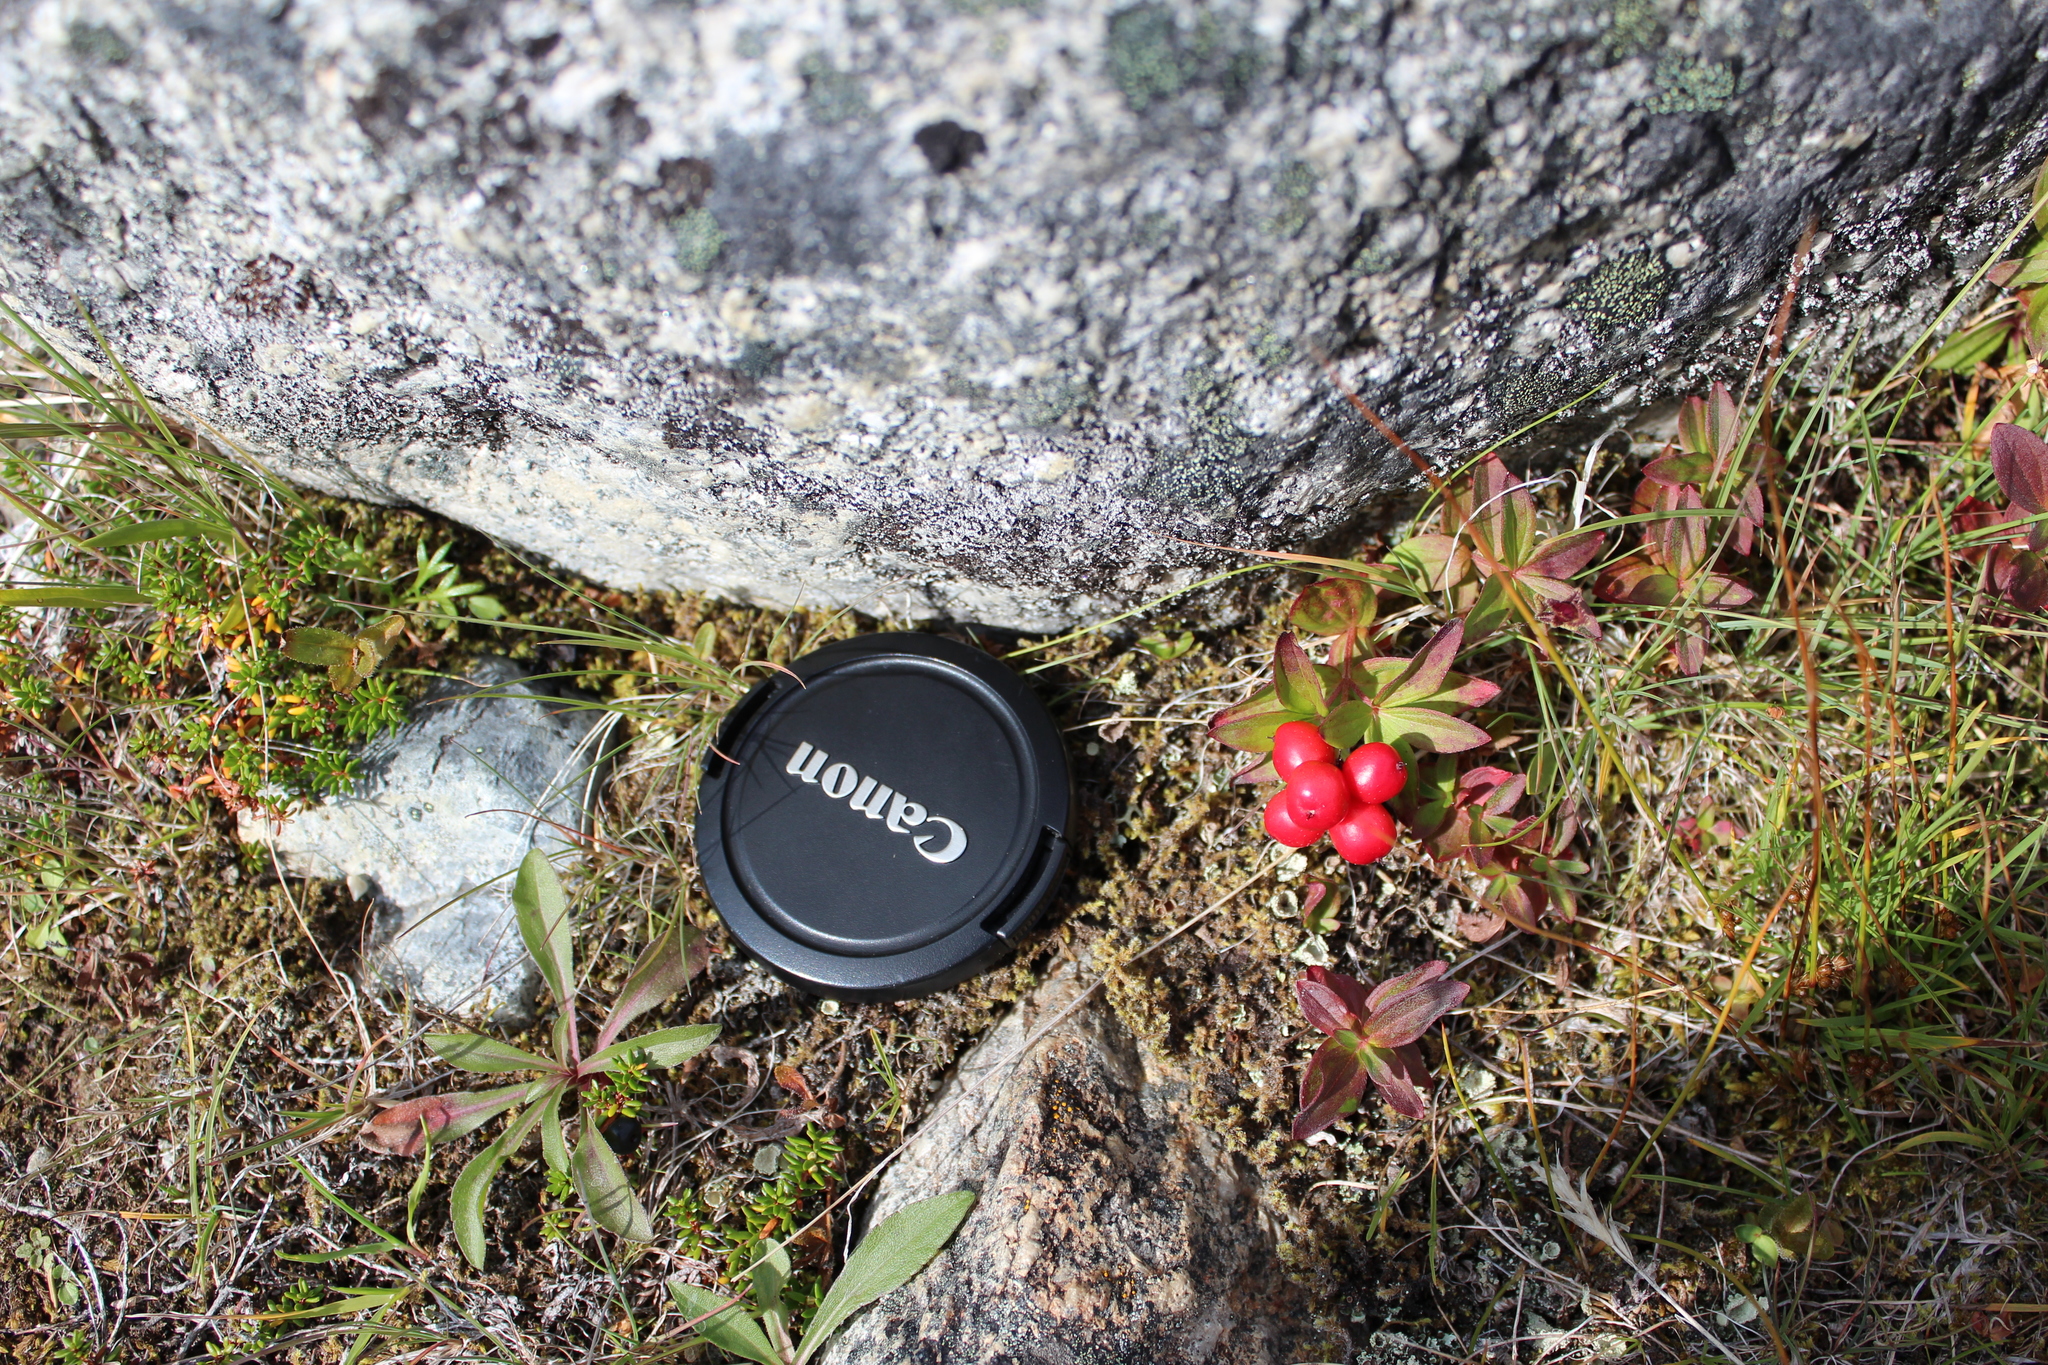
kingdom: Plantae
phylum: Tracheophyta
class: Magnoliopsida
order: Cornales
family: Cornaceae
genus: Cornus
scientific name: Cornus canadensis
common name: Creeping dogwood
